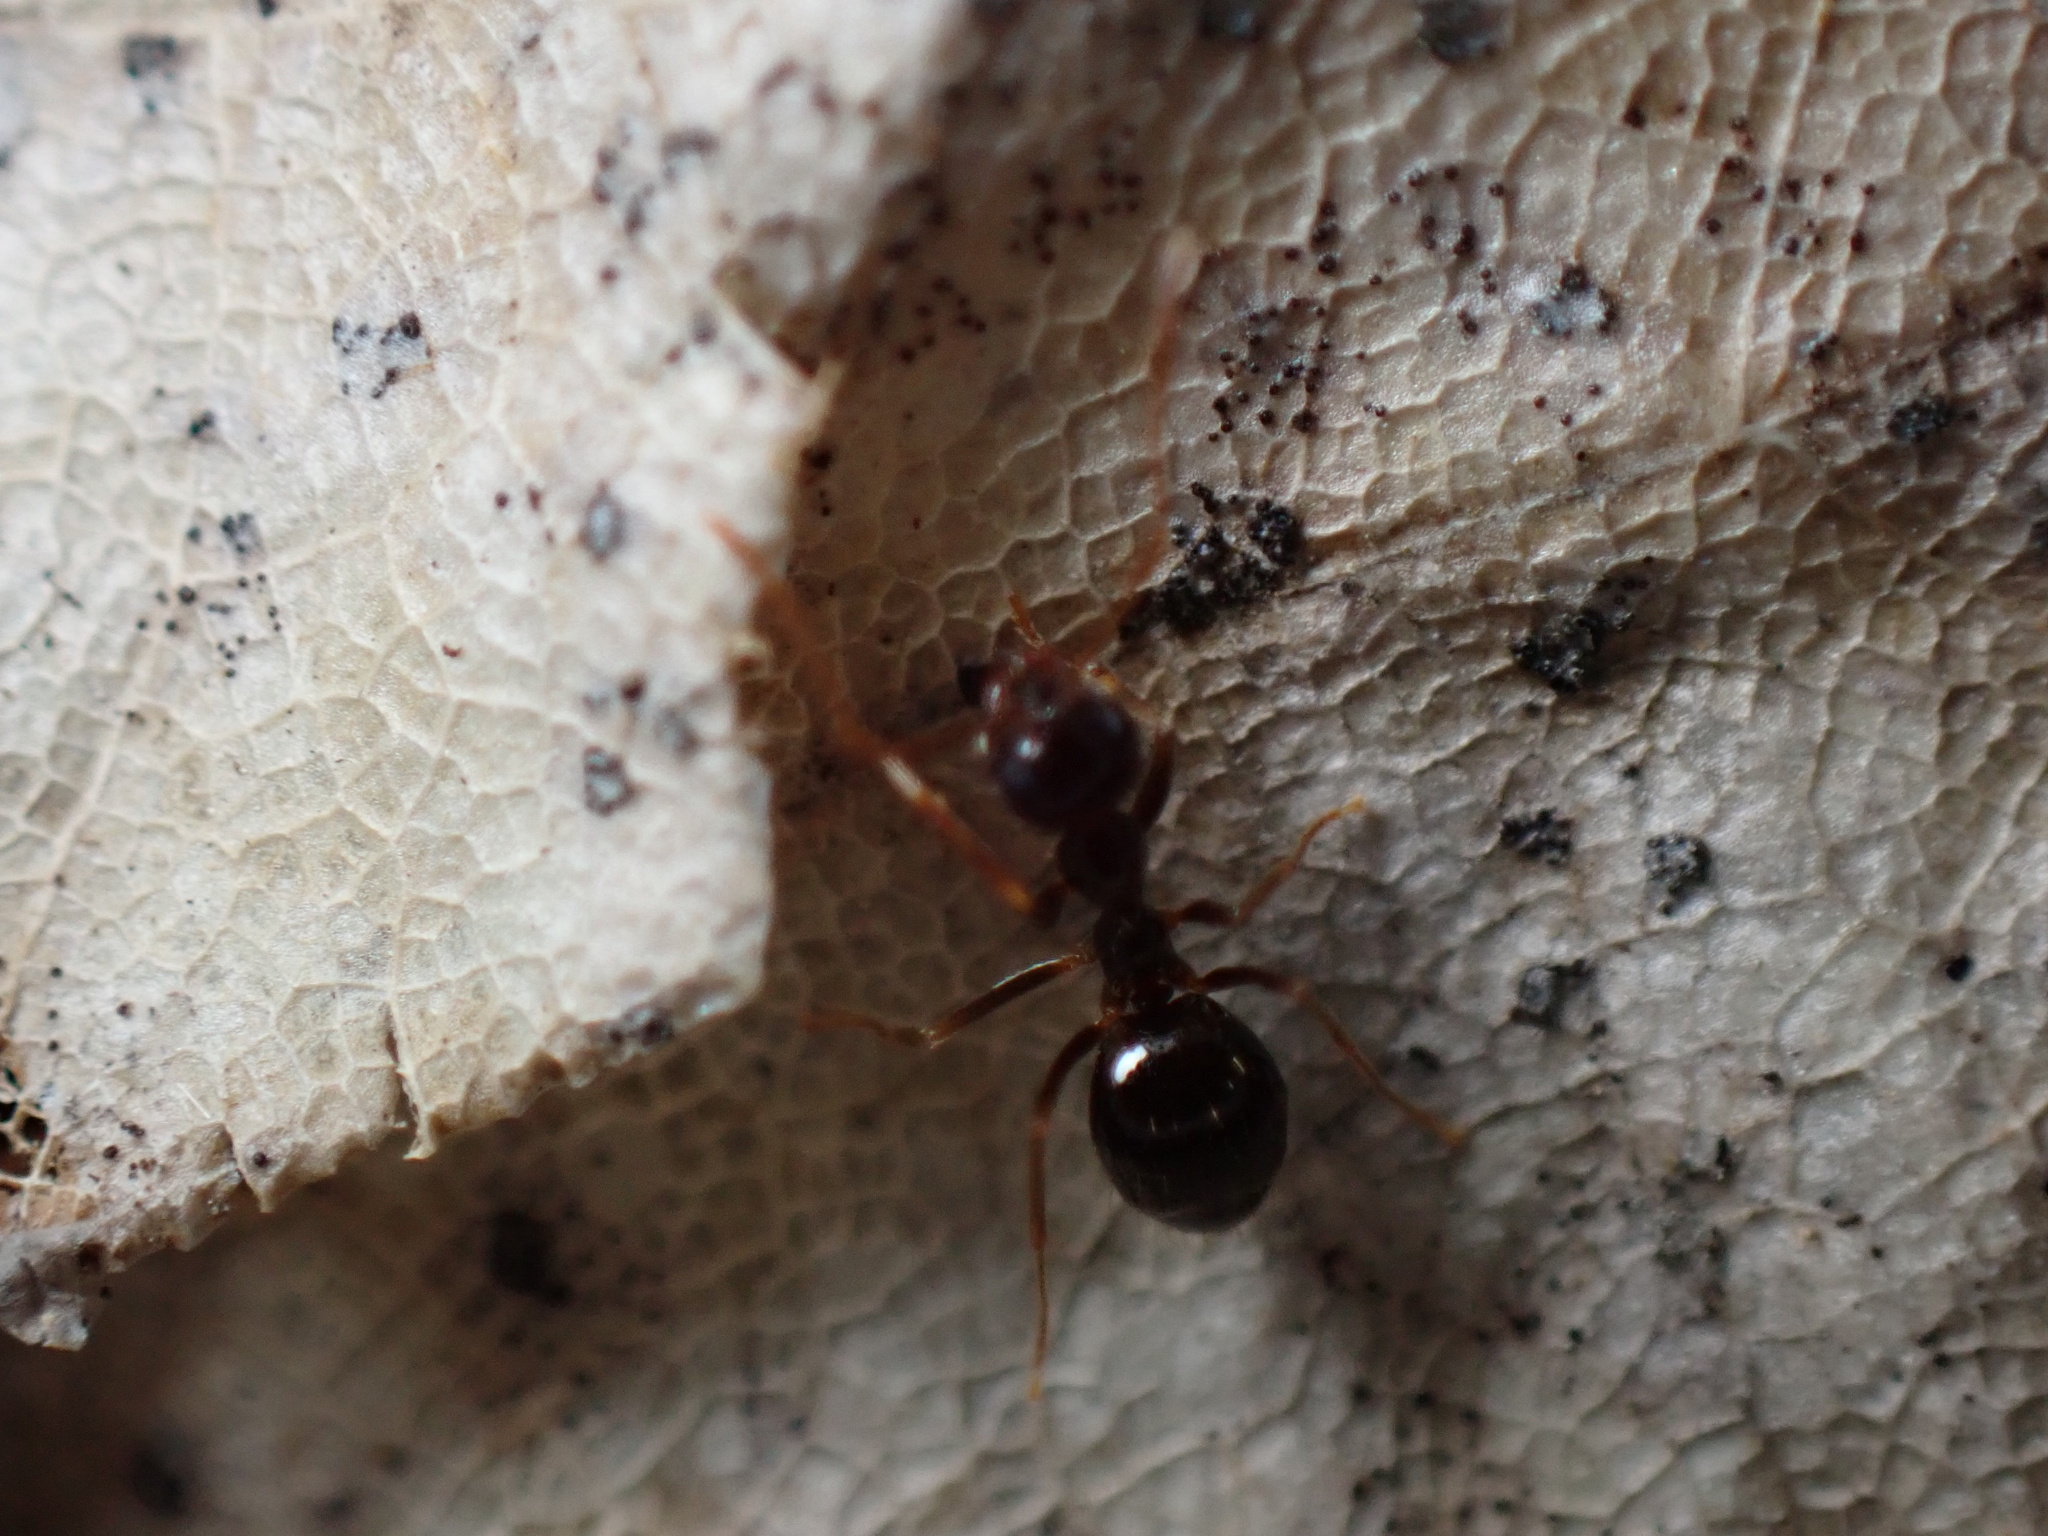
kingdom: Animalia
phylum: Arthropoda
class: Insecta
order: Hymenoptera
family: Formicidae
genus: Prenolepis
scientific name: Prenolepis imparis
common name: Small honey ant
